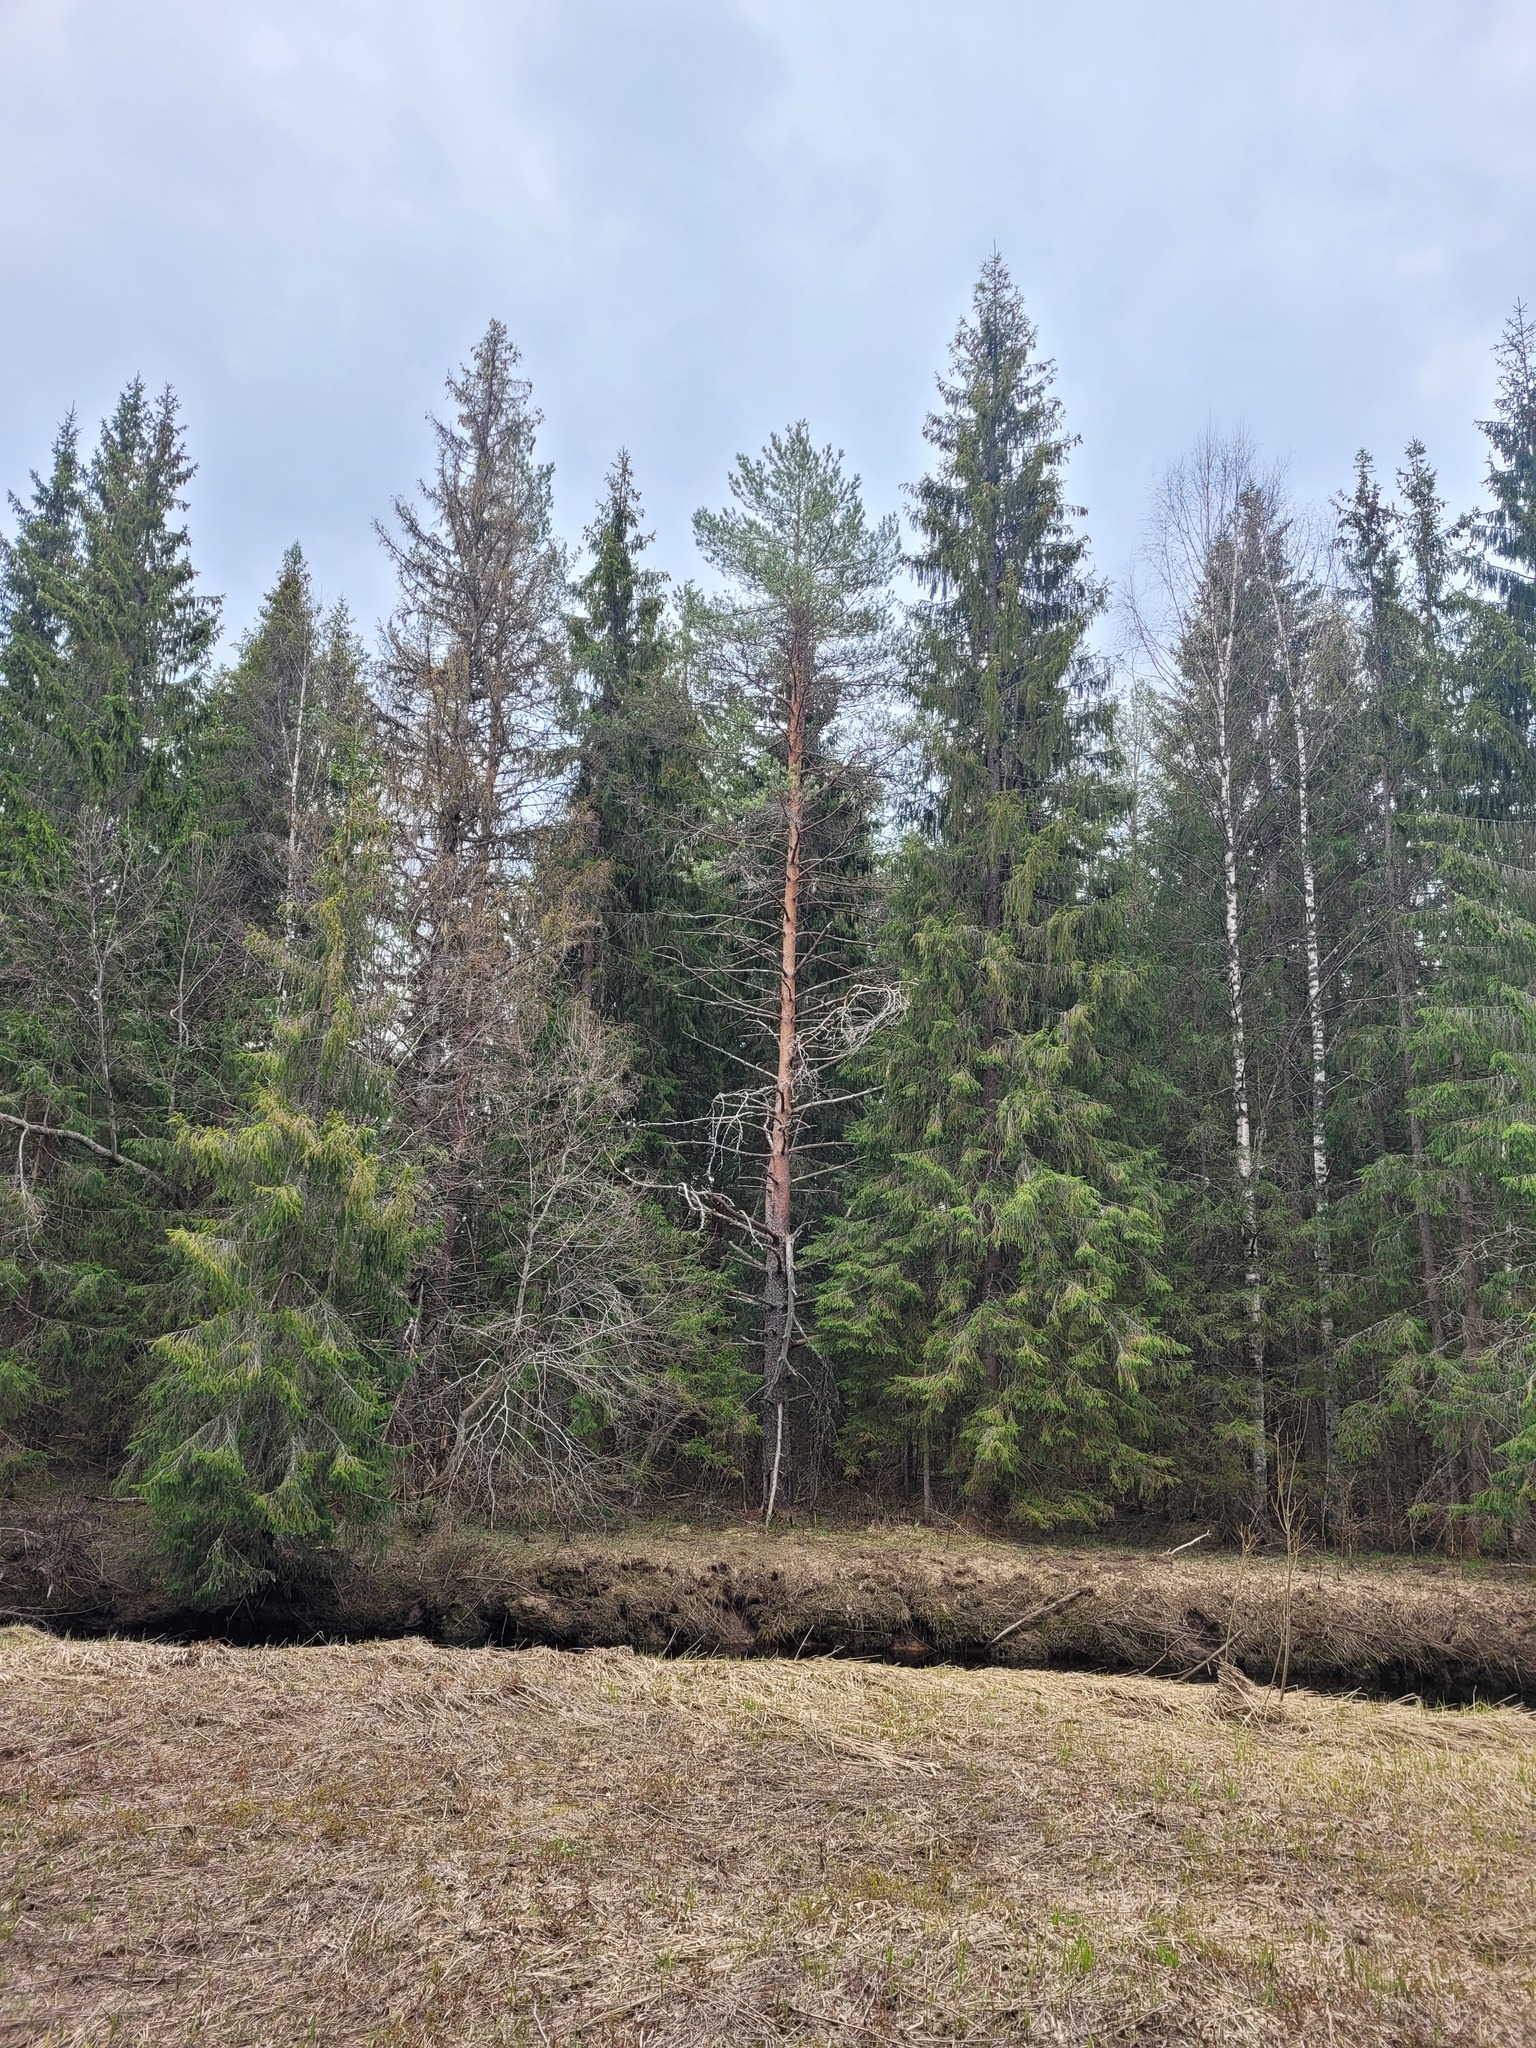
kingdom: Plantae
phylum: Tracheophyta
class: Pinopsida
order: Pinales
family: Pinaceae
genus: Pinus
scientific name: Pinus sylvestris
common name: Scots pine
